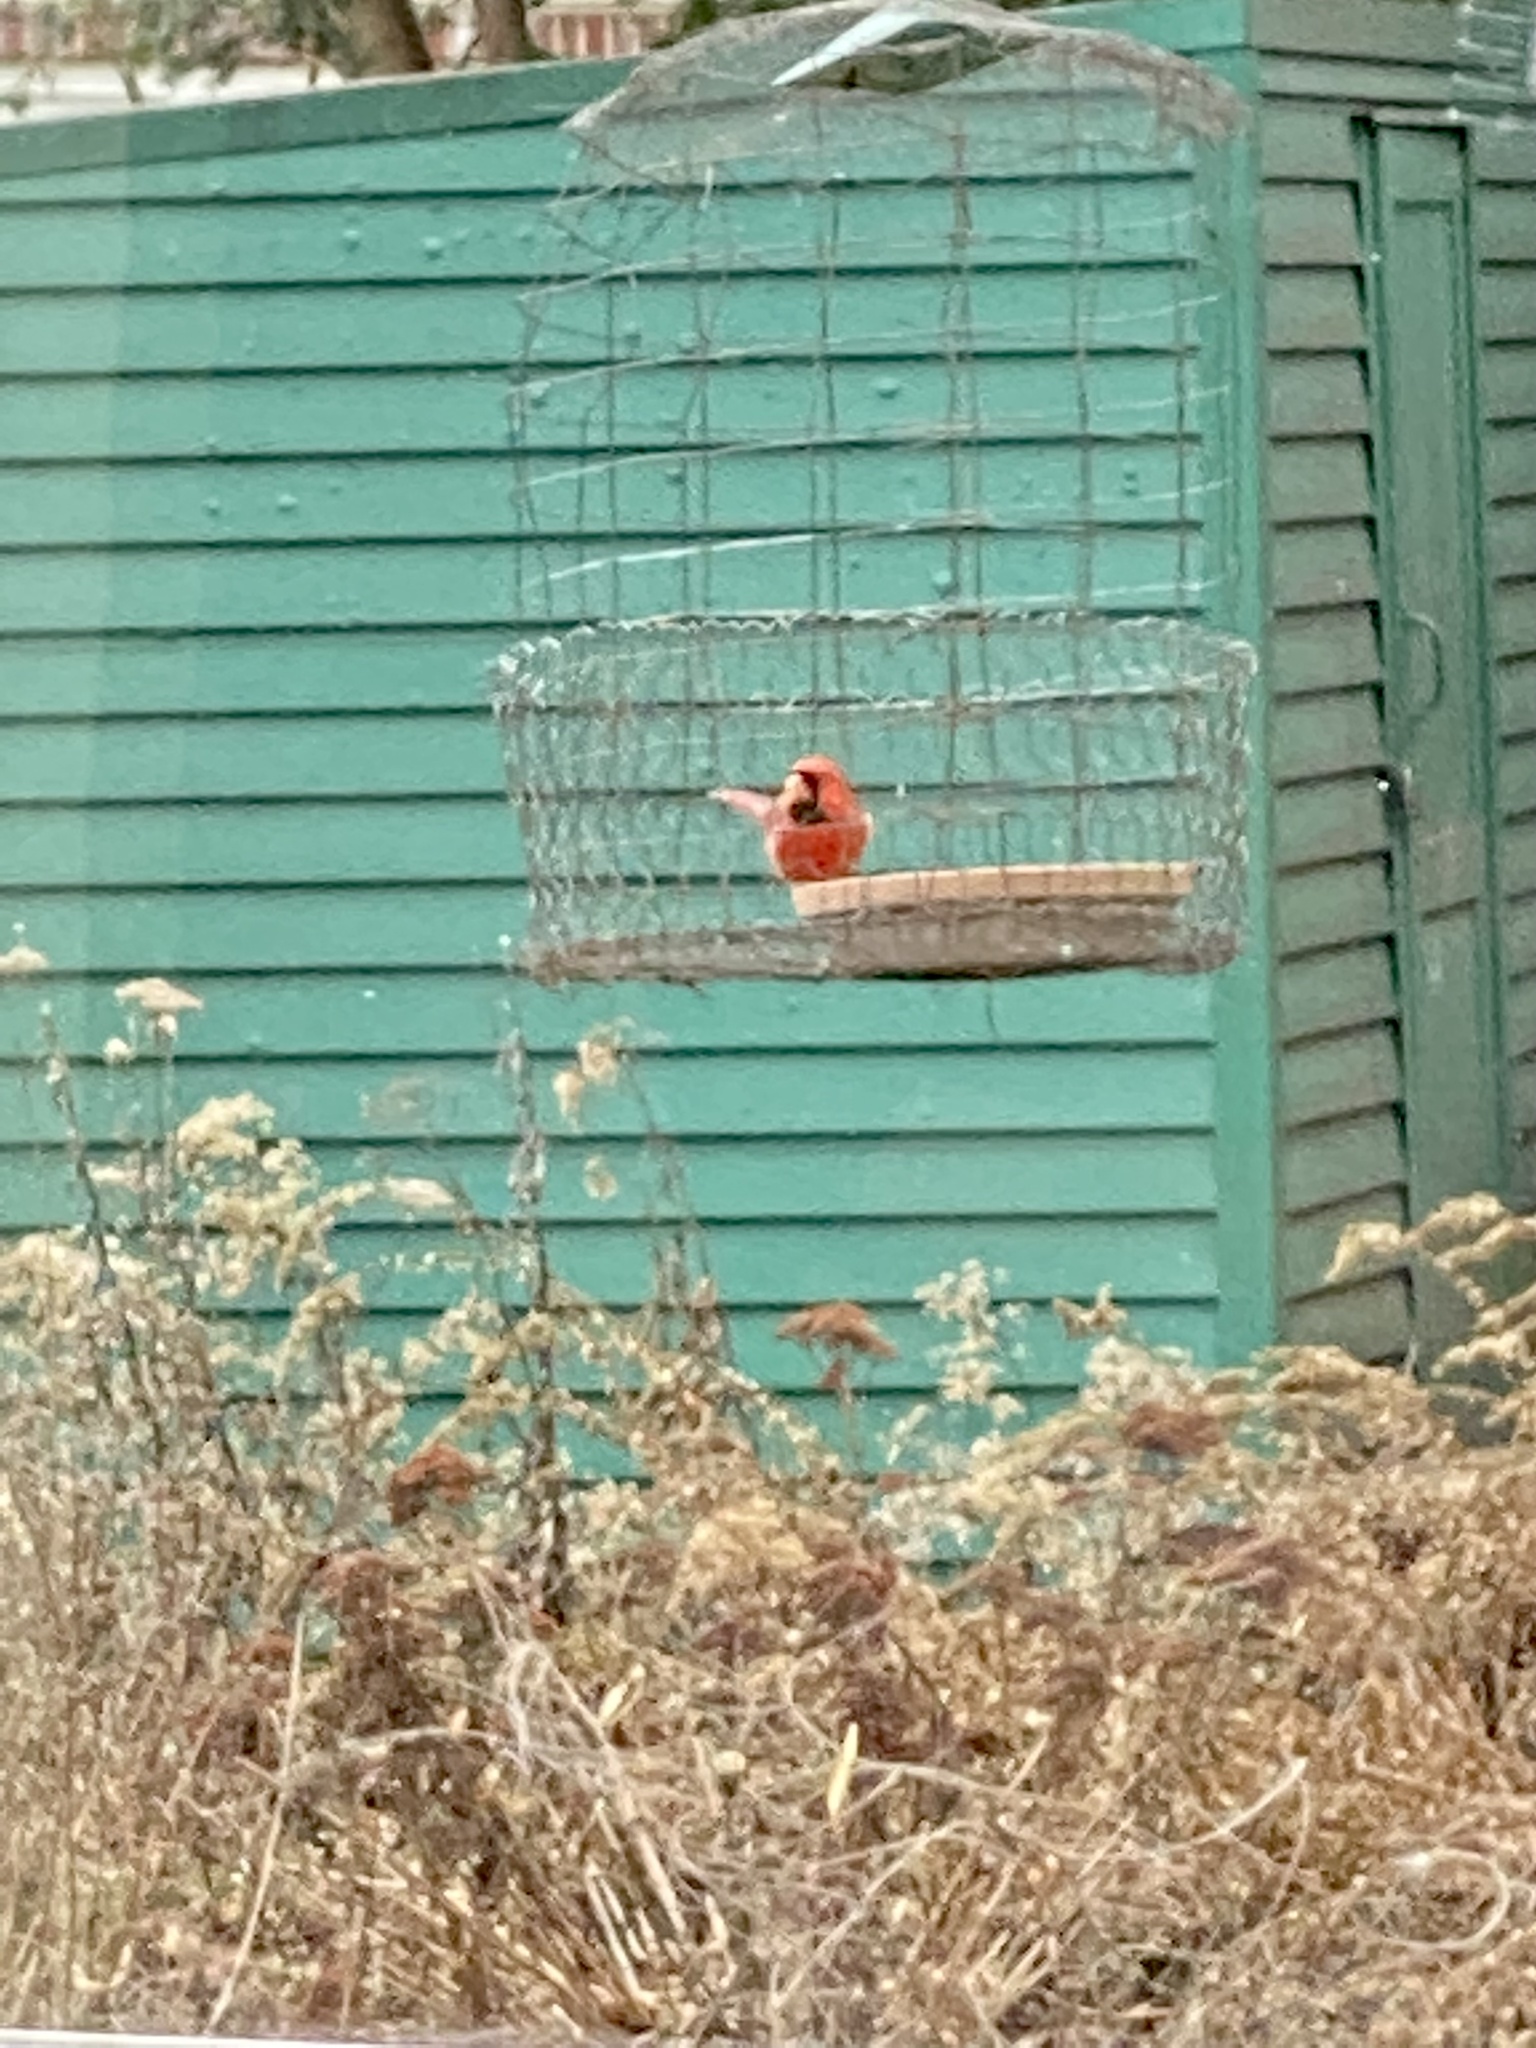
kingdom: Animalia
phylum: Chordata
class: Aves
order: Passeriformes
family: Cardinalidae
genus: Cardinalis
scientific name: Cardinalis cardinalis
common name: Northern cardinal
